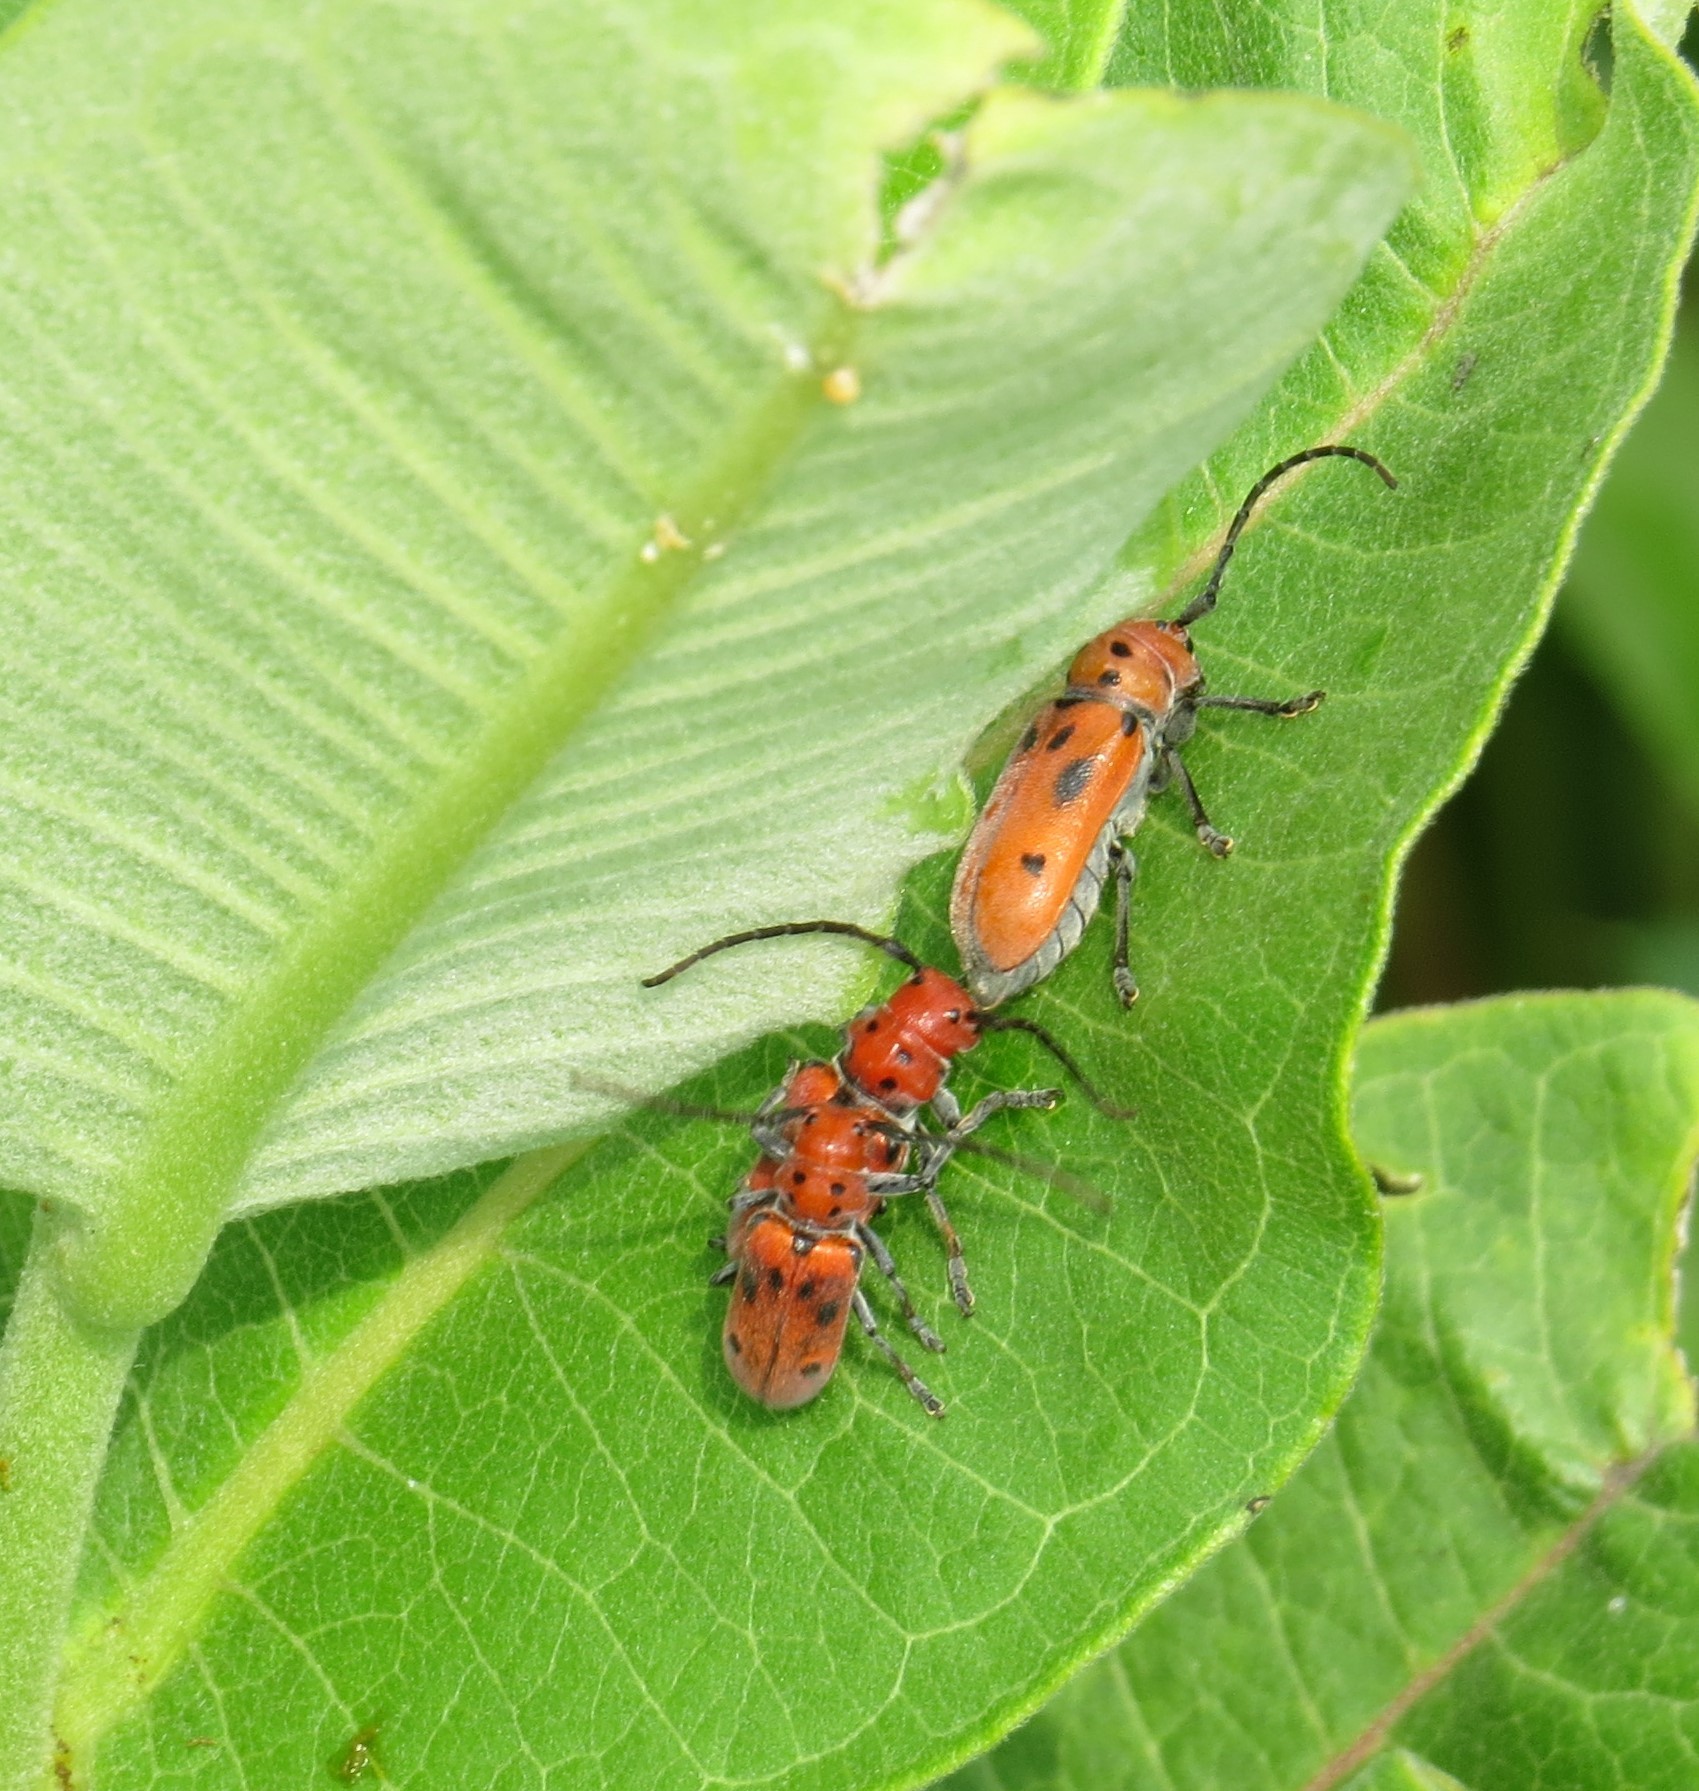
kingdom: Animalia
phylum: Arthropoda
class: Insecta
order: Coleoptera
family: Cerambycidae
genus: Tetraopes
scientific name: Tetraopes tetrophthalmus
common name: Red milkweed beetle
